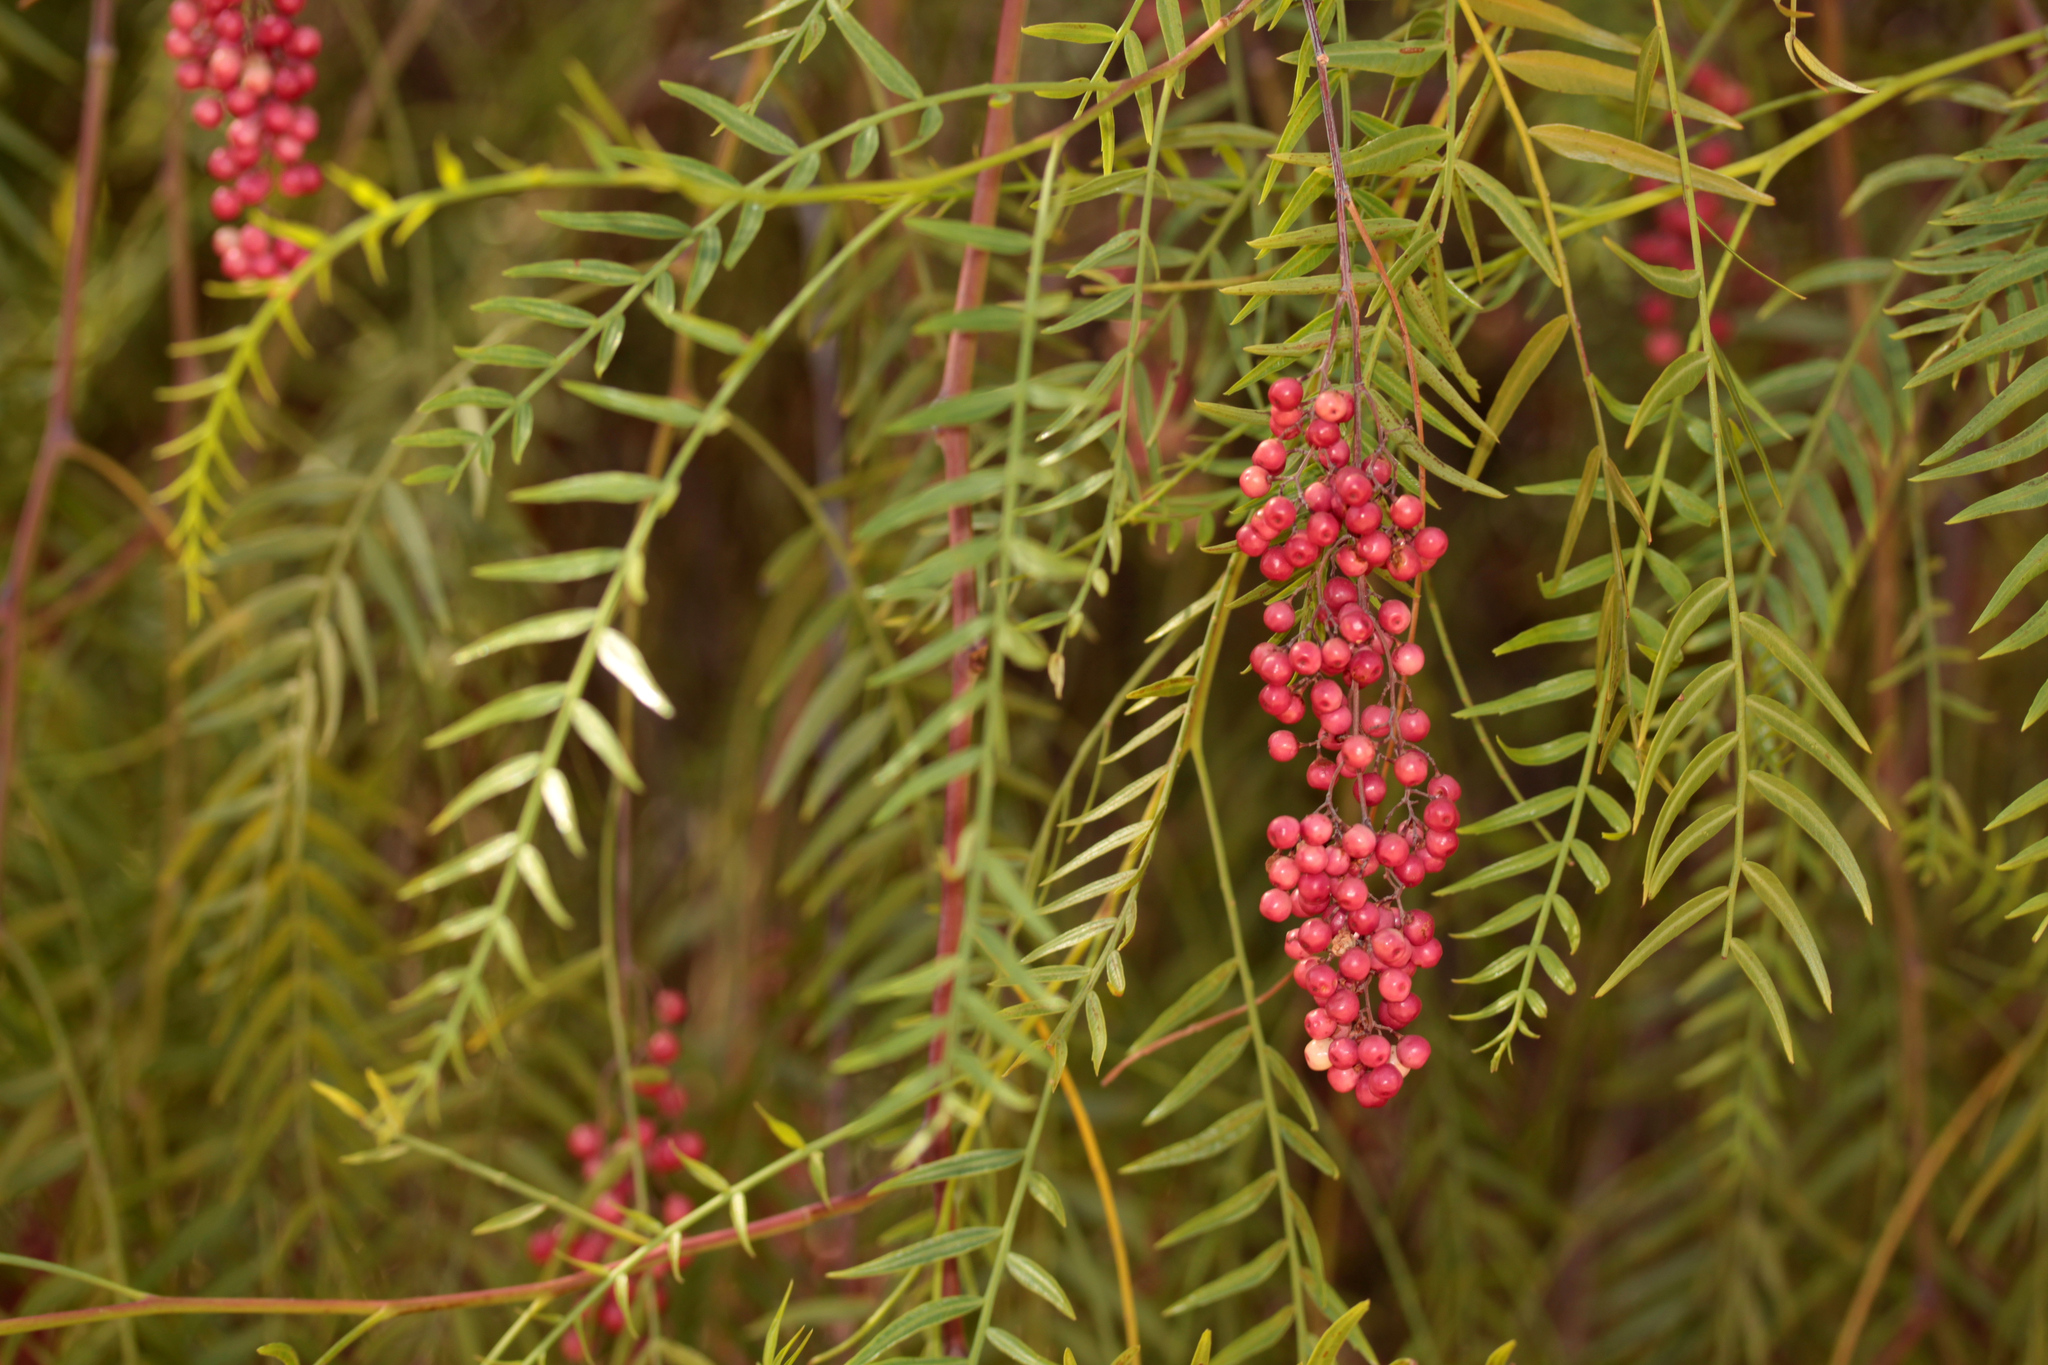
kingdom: Plantae
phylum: Tracheophyta
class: Magnoliopsida
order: Sapindales
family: Anacardiaceae
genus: Schinus
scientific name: Schinus molle
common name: Peruvian peppertree
